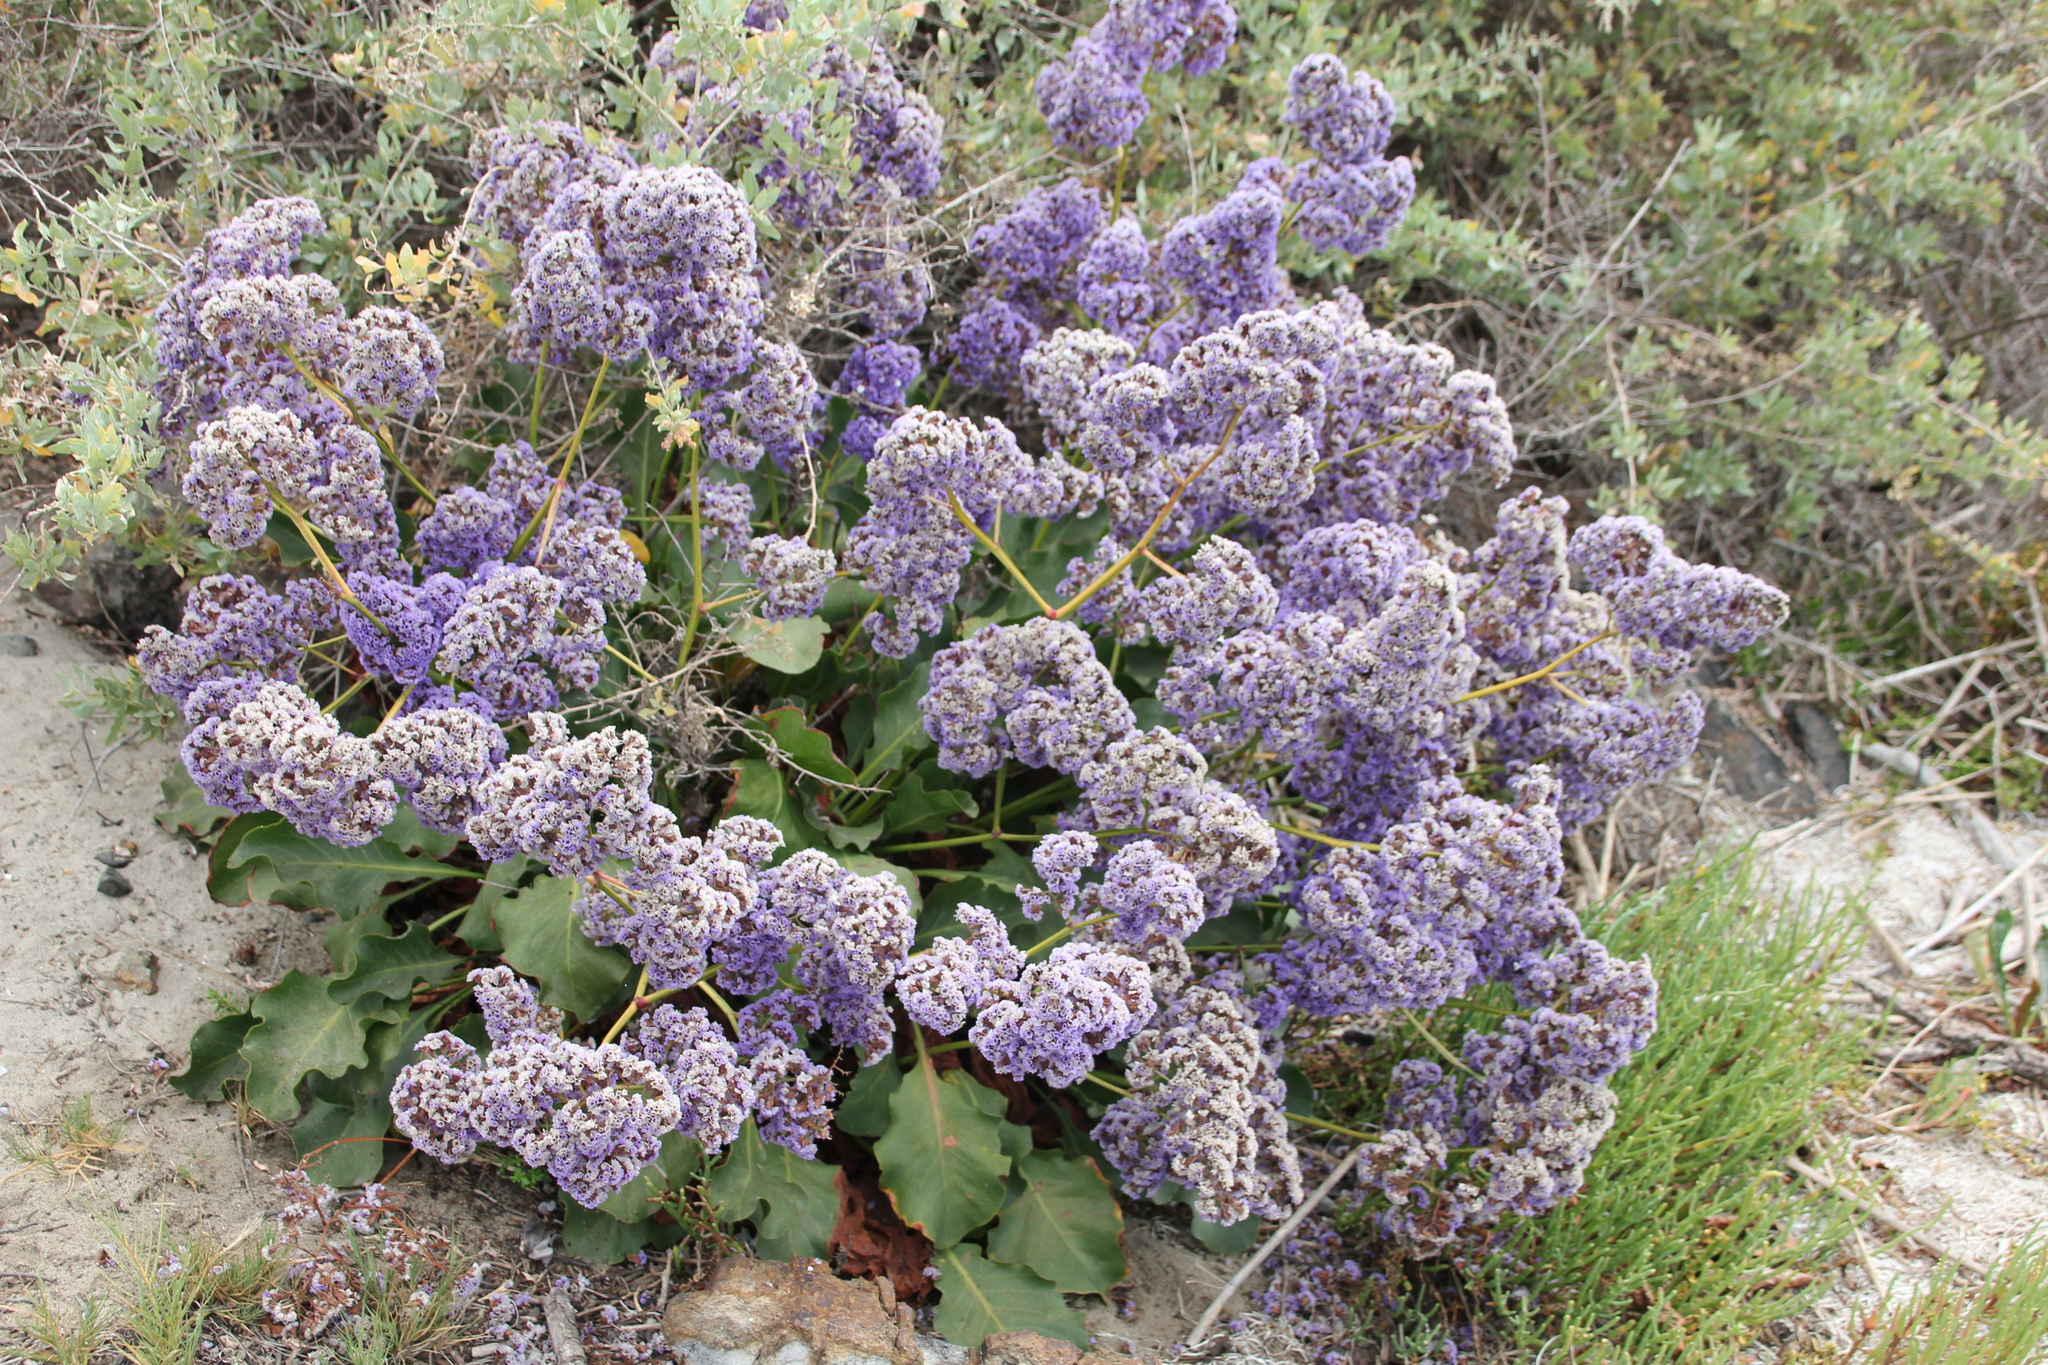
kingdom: Plantae
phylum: Tracheophyta
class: Magnoliopsida
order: Caryophyllales
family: Plumbaginaceae
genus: Limonium
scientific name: Limonium perezii
